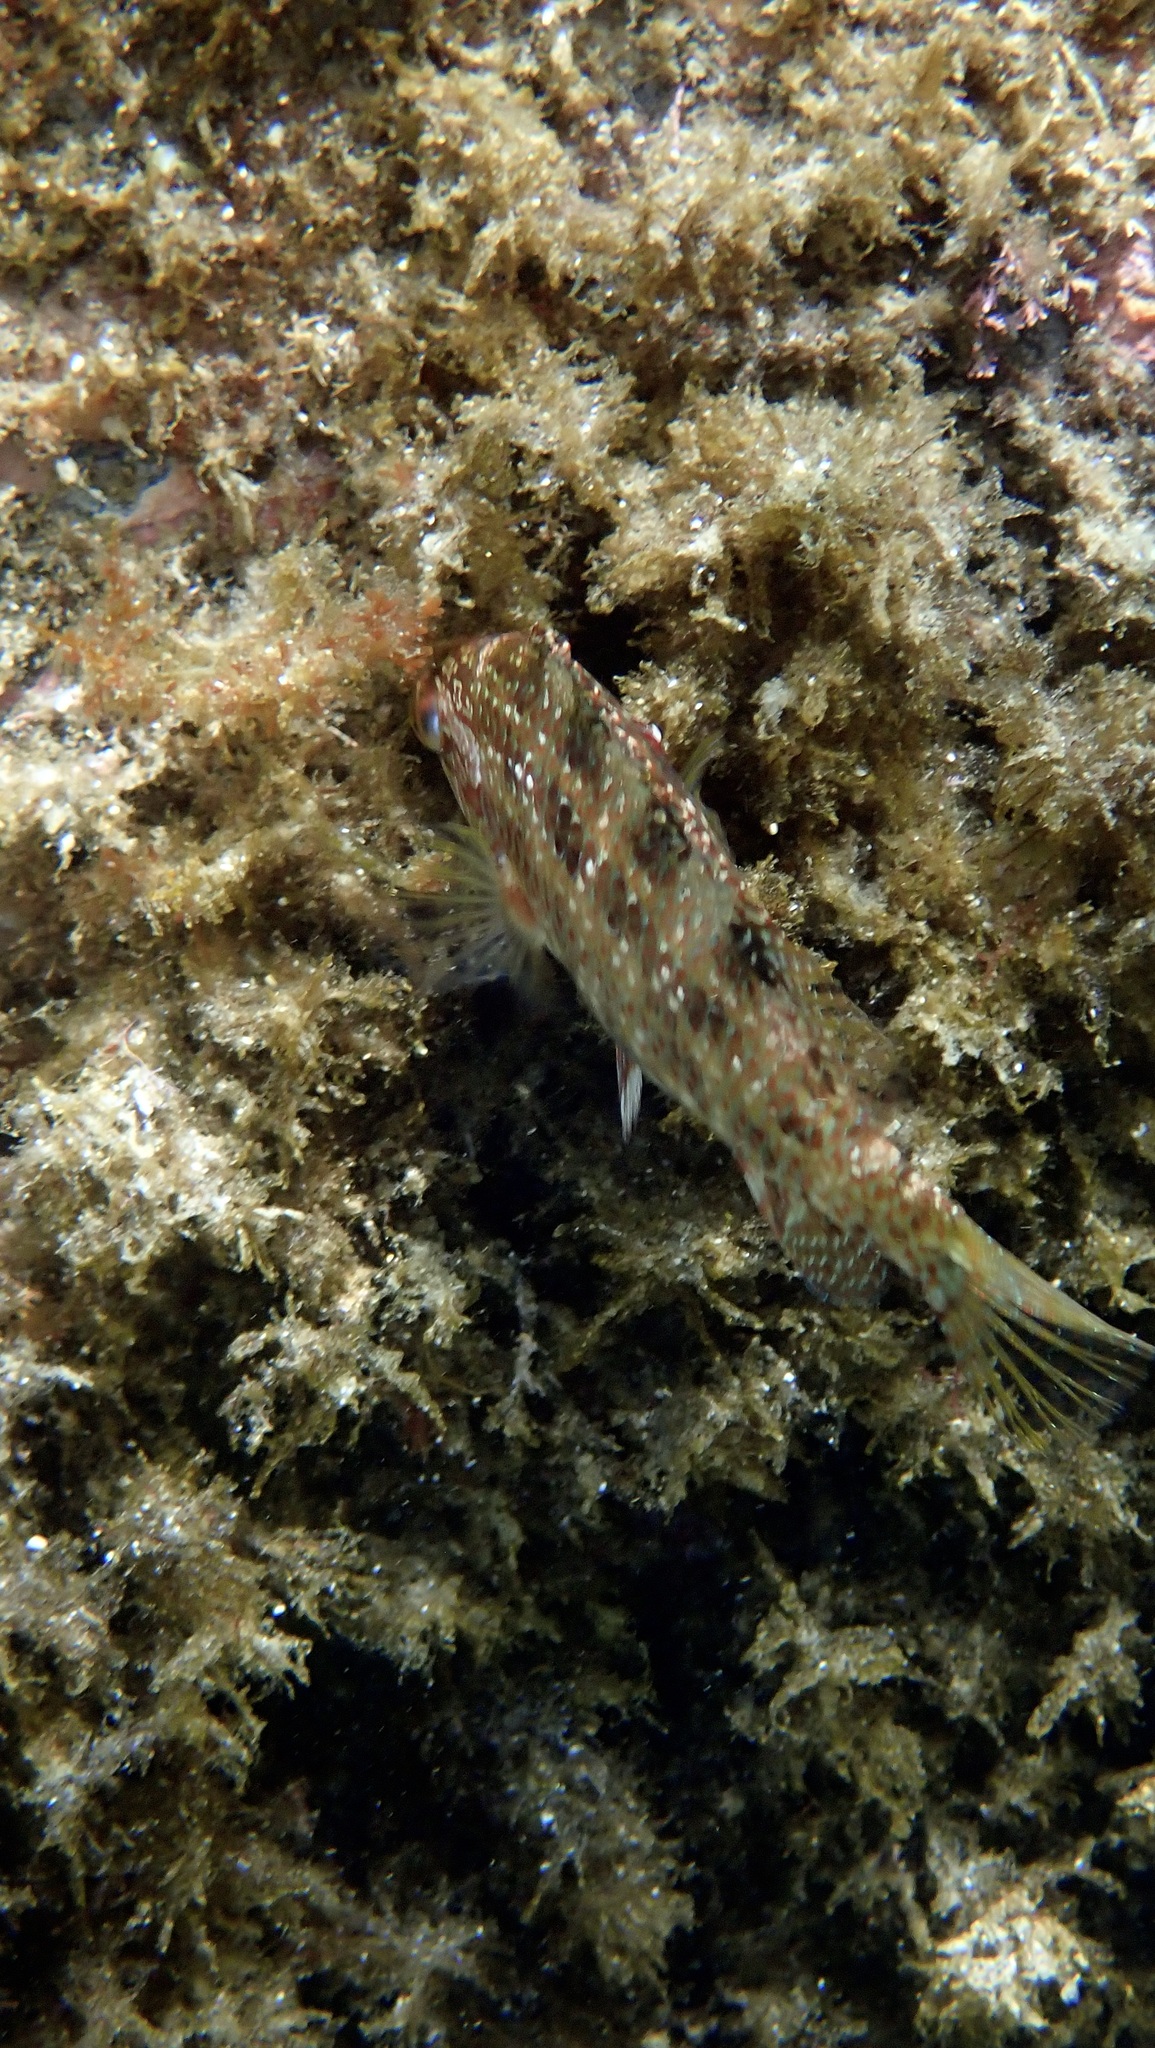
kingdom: Animalia
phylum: Chordata
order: Perciformes
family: Labridae
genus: Symphodus
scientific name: Symphodus roissali
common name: Five-spotted wrasse
